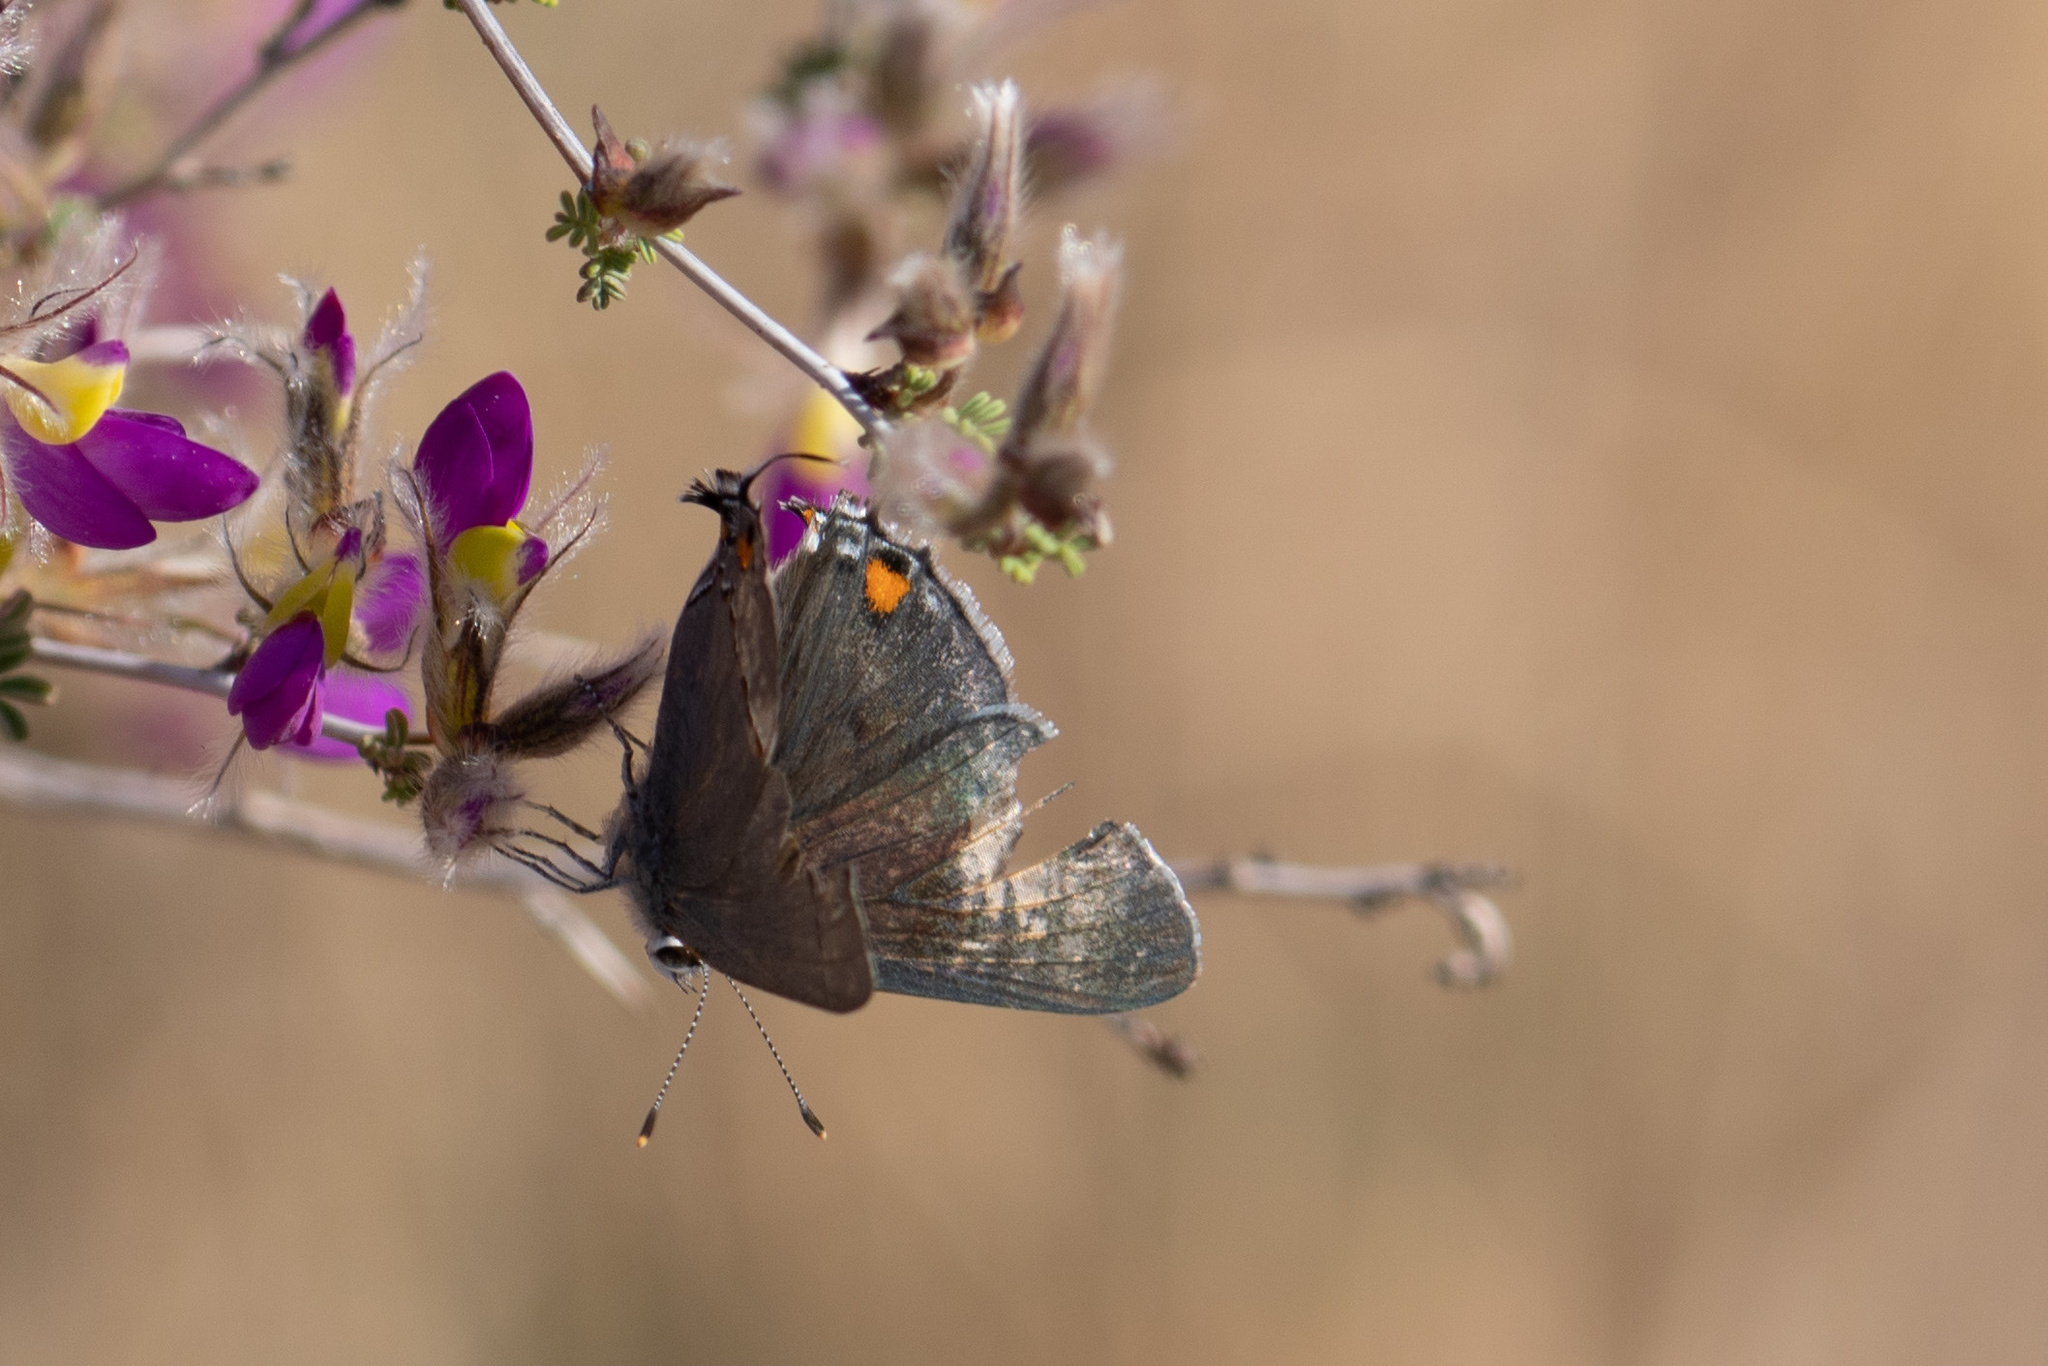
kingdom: Animalia
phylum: Arthropoda
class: Insecta
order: Lepidoptera
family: Lycaenidae
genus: Strymon
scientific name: Strymon melinus
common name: Gray hairstreak
